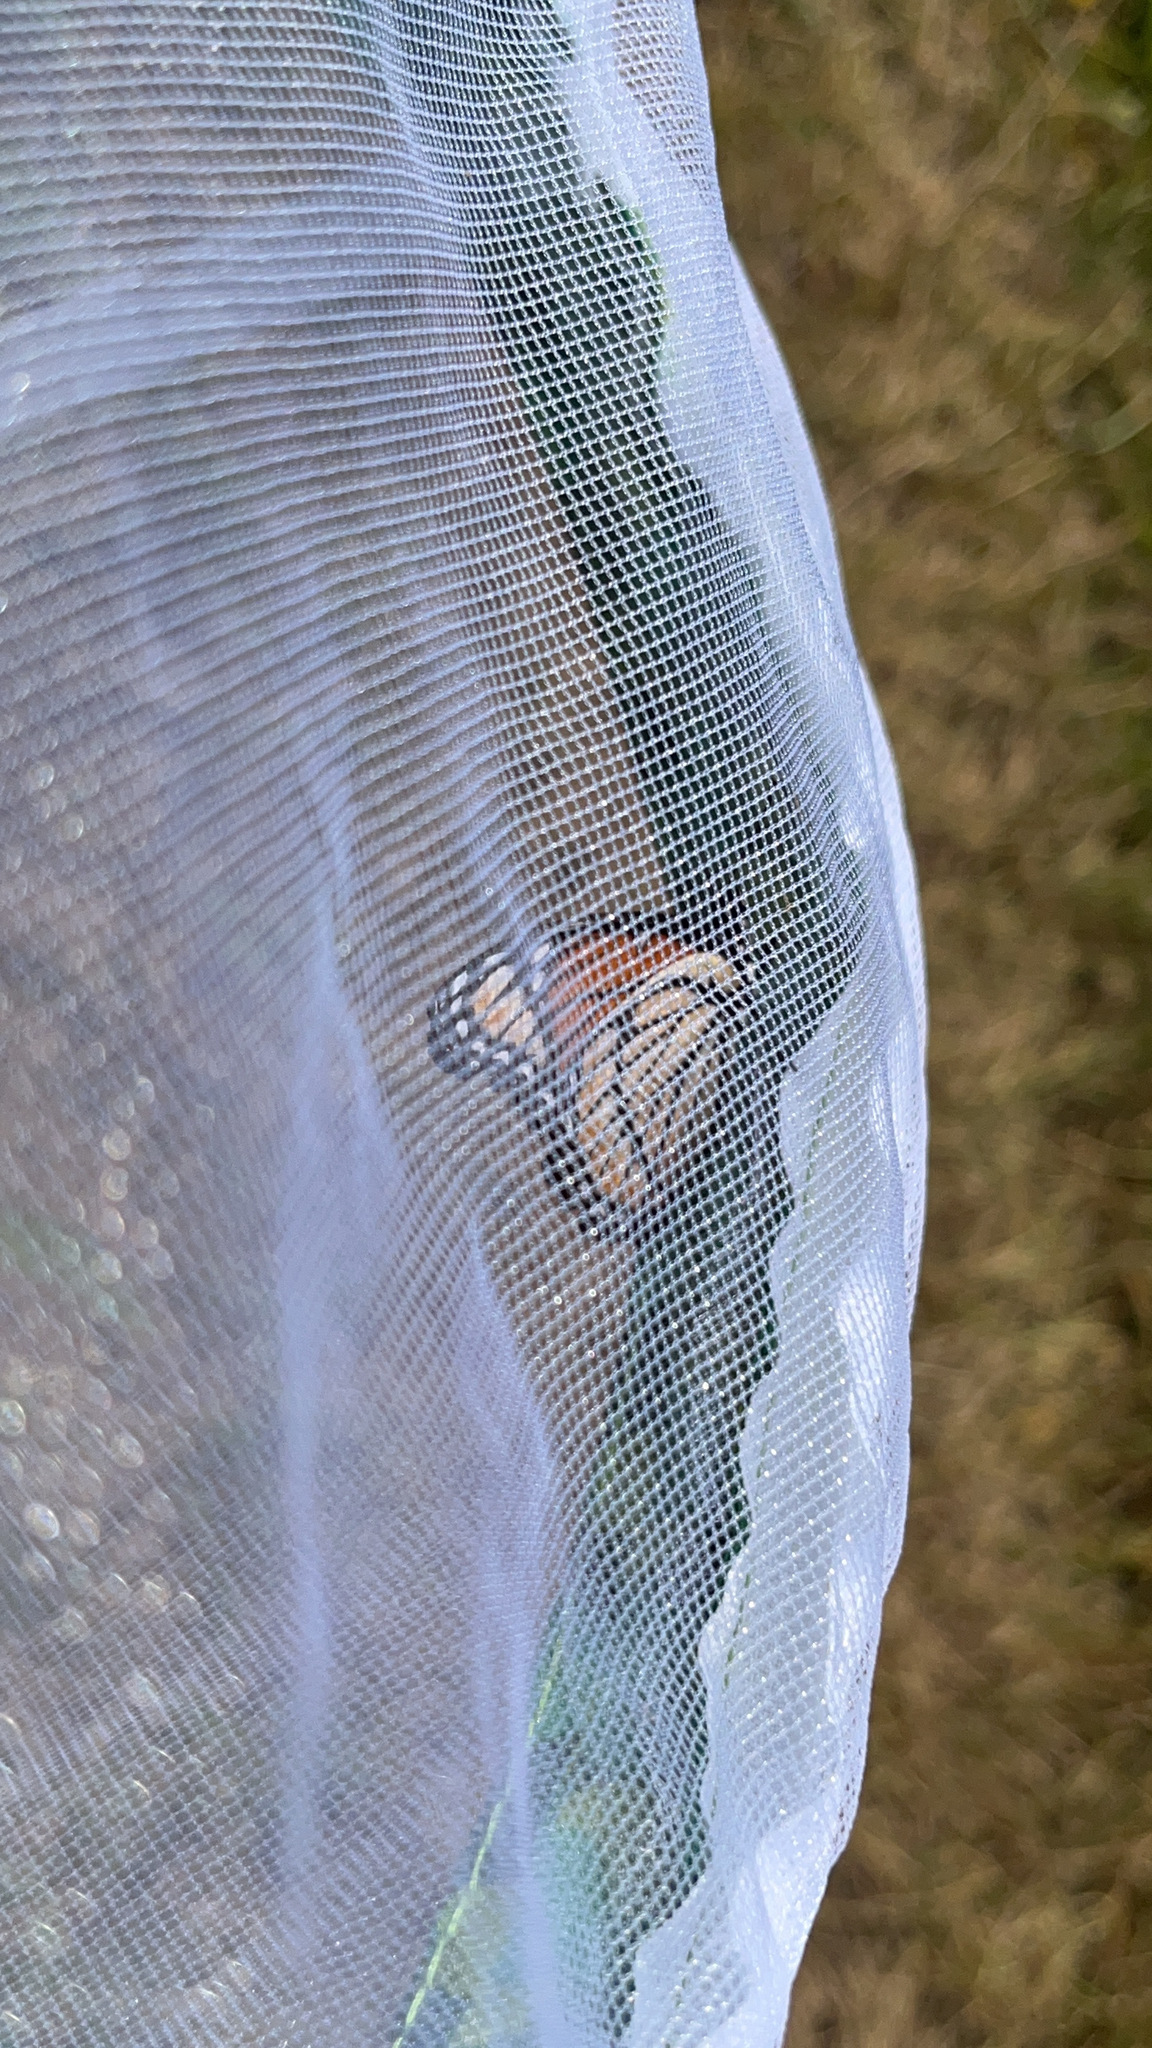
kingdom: Animalia
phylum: Arthropoda
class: Insecta
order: Lepidoptera
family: Nymphalidae
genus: Limenitis
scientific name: Limenitis archippus
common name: Viceroy
